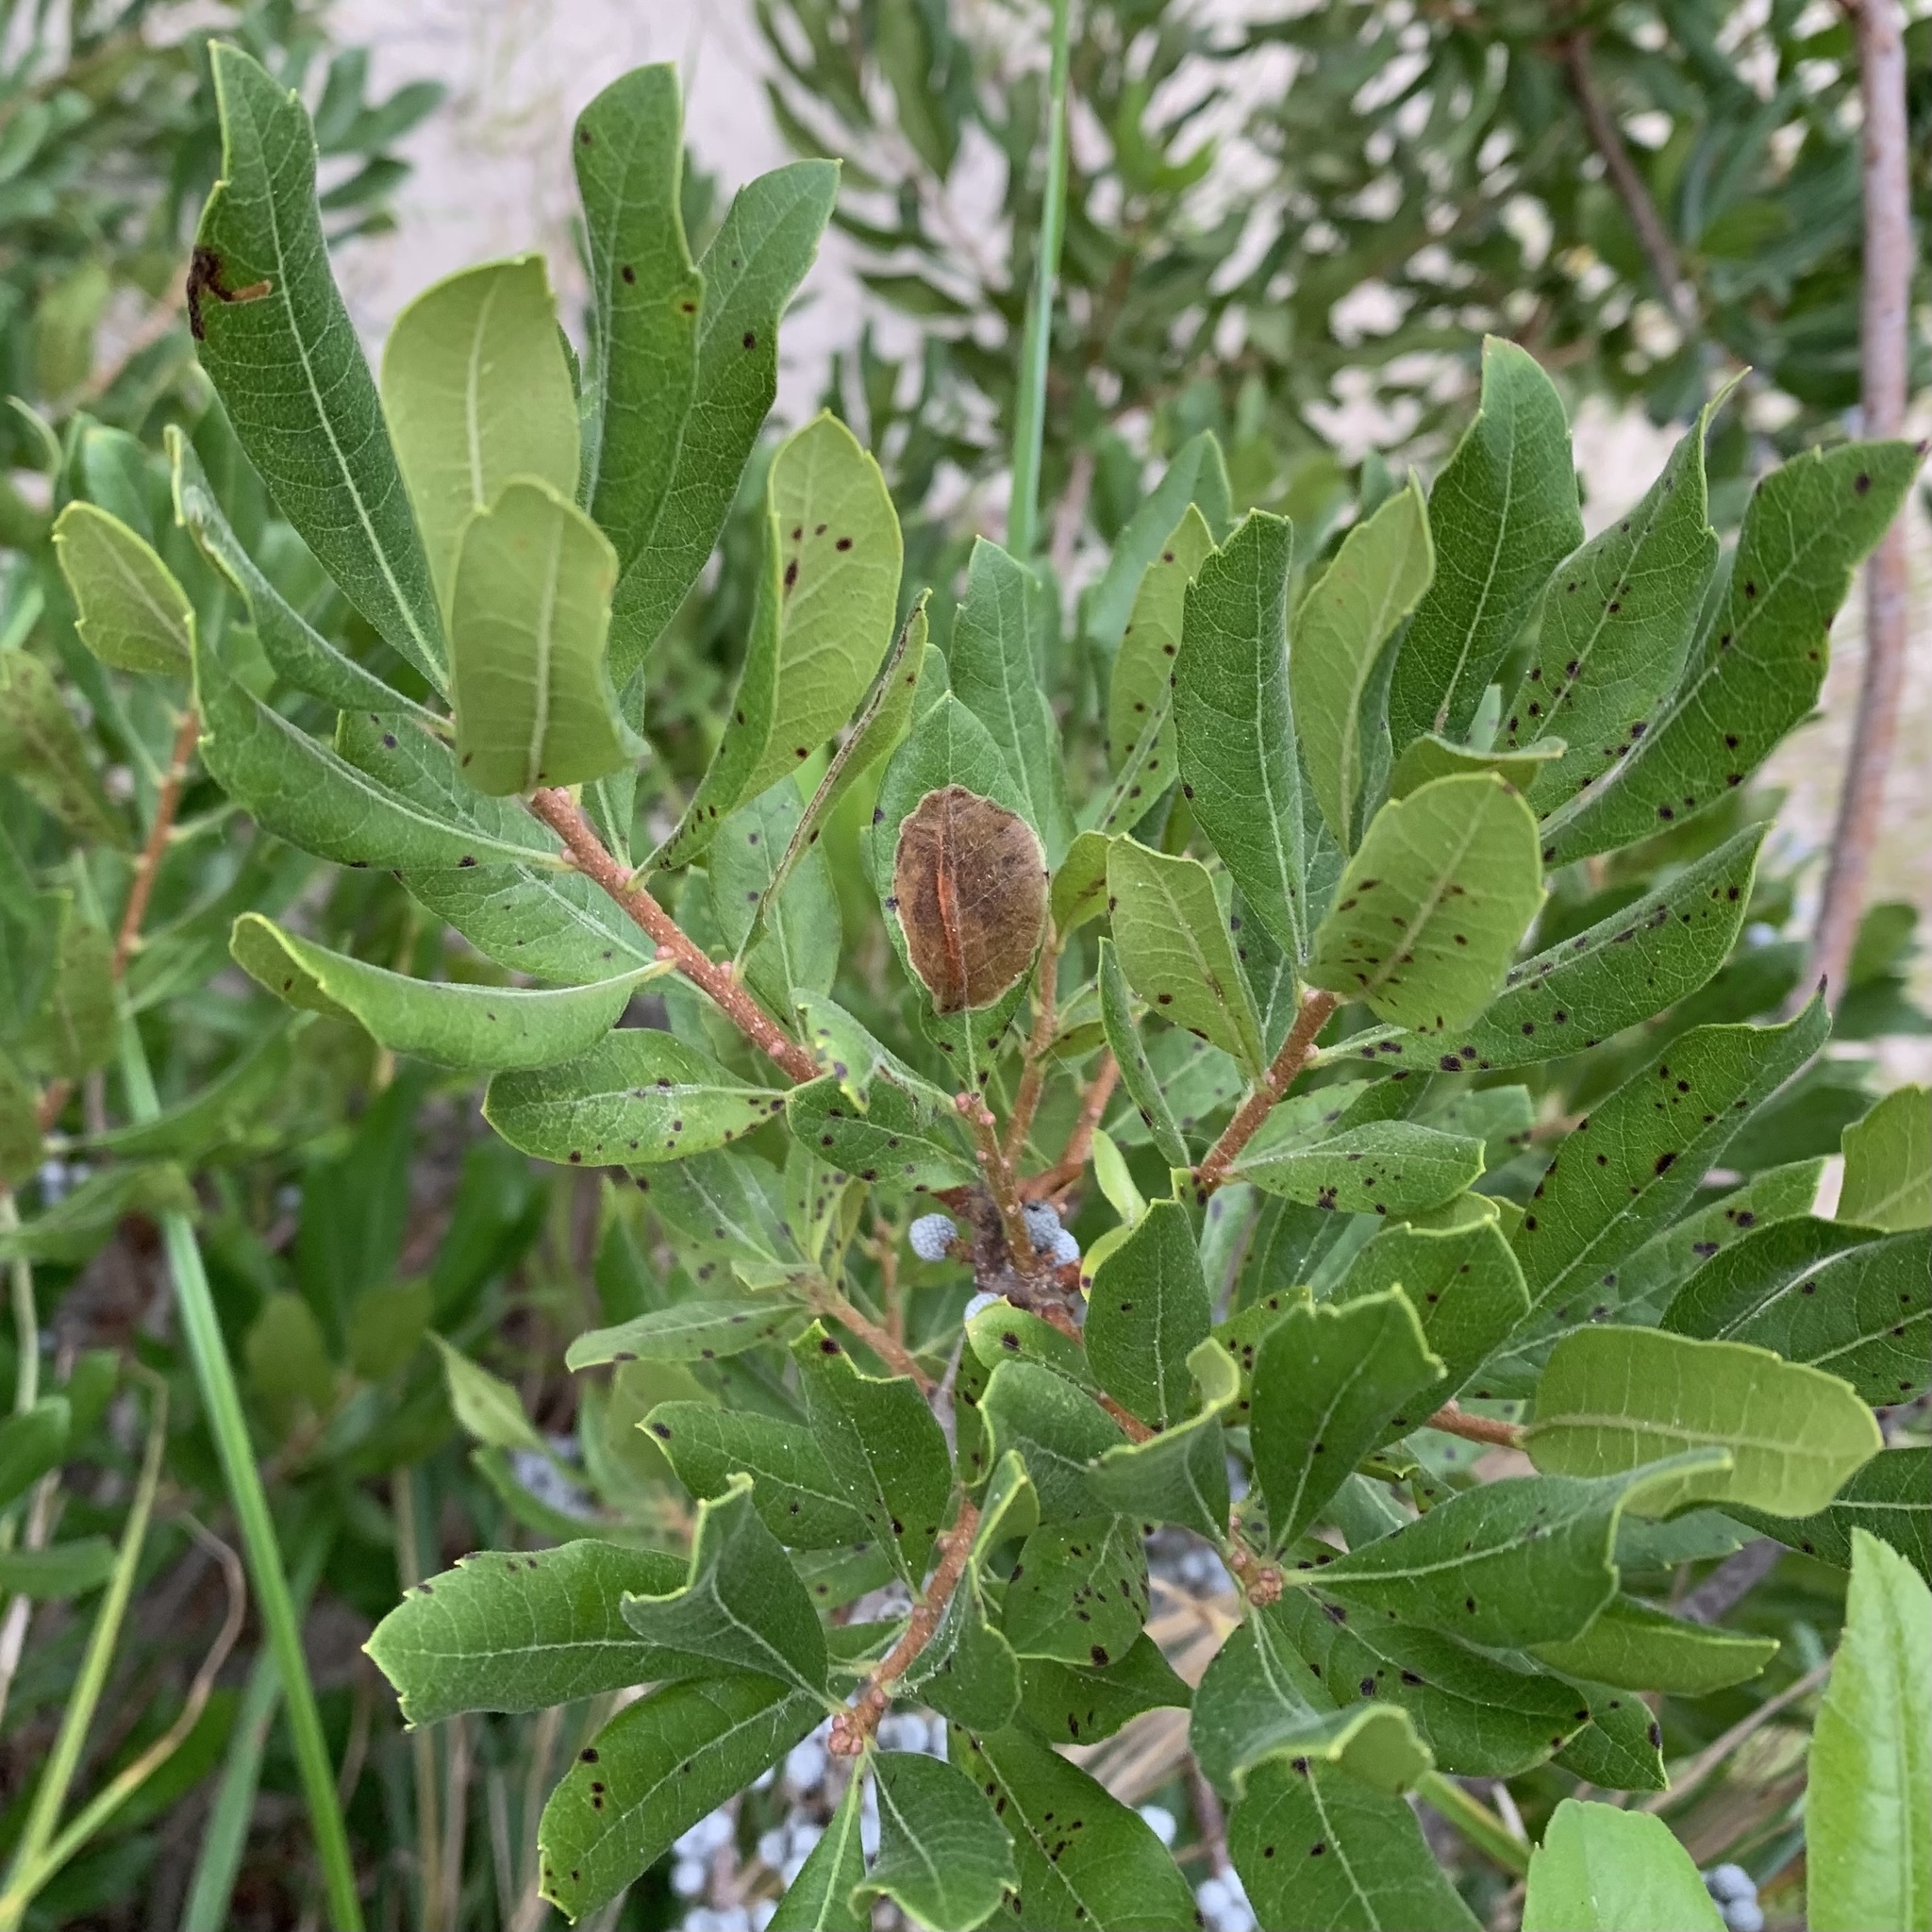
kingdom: Animalia
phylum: Arthropoda
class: Insecta
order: Lepidoptera
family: Gracillariidae
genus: Cameraria
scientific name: Cameraria picturatella
